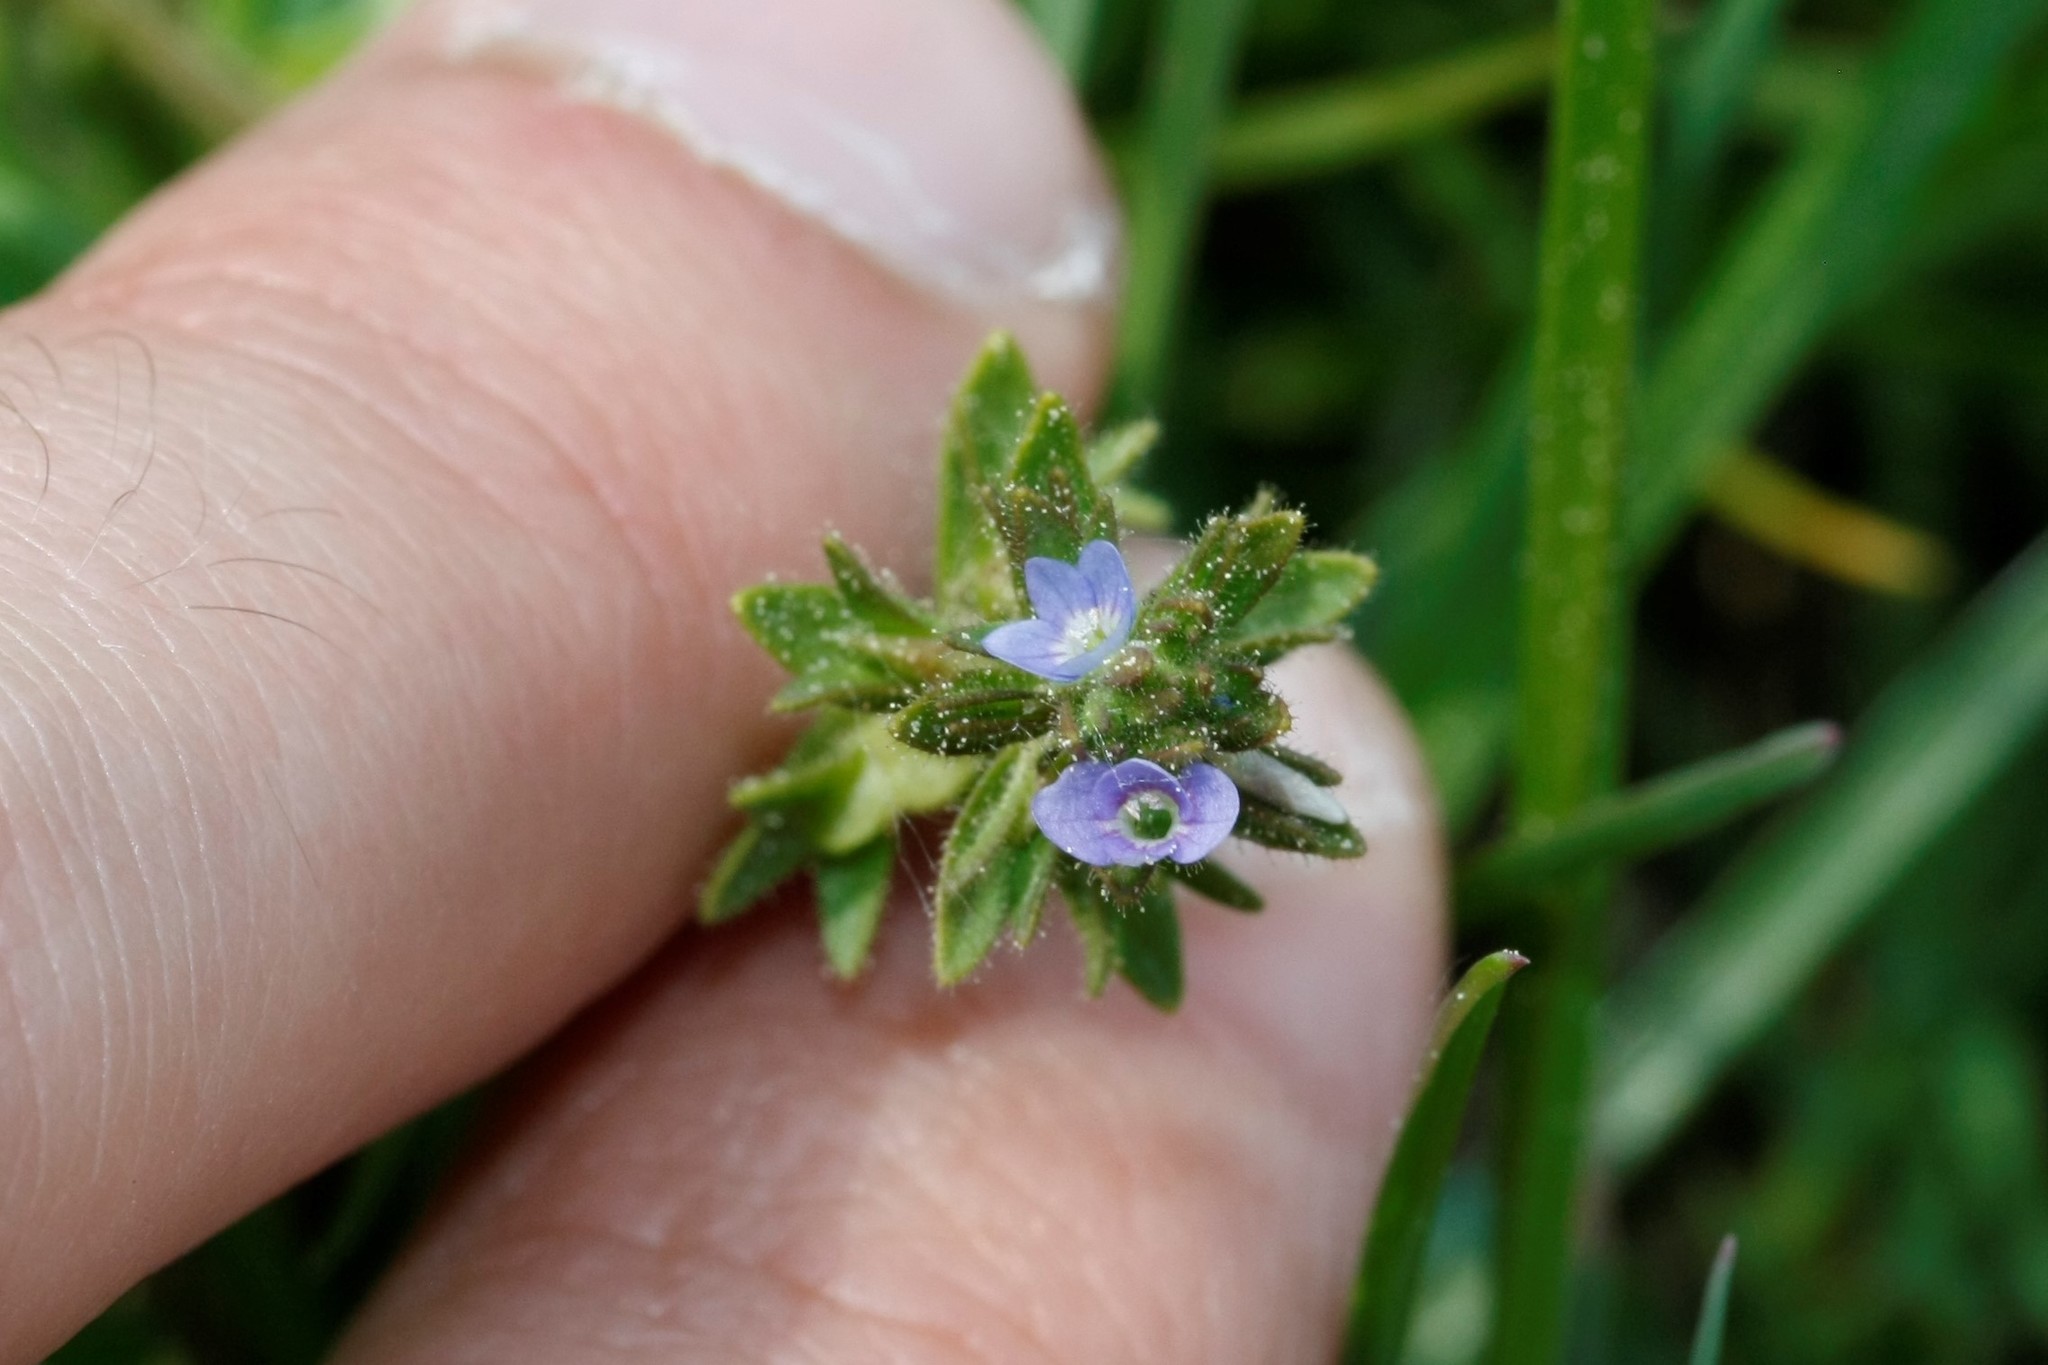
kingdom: Plantae
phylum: Tracheophyta
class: Magnoliopsida
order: Lamiales
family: Plantaginaceae
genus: Veronica
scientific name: Veronica arvensis
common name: Corn speedwell
